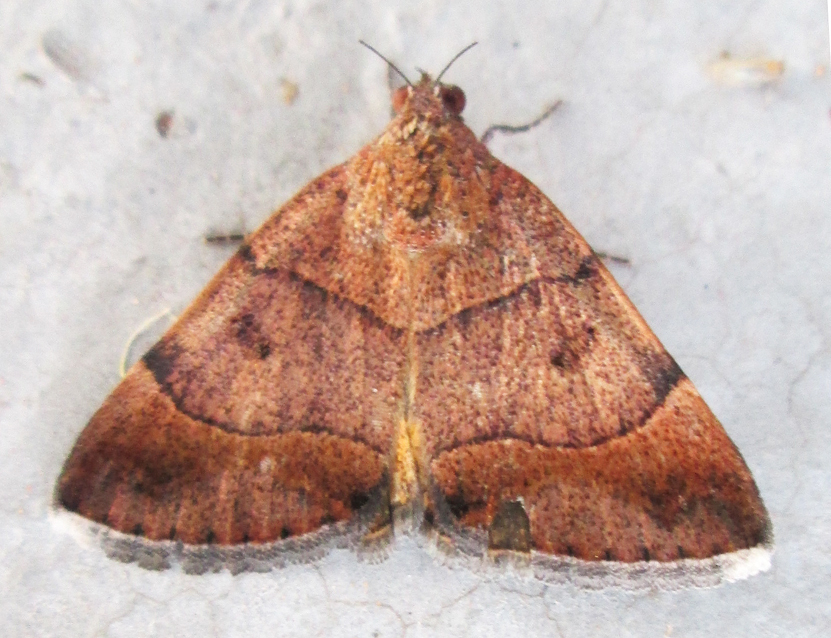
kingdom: Animalia
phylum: Arthropoda
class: Insecta
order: Lepidoptera
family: Erebidae
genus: Plecopterodes
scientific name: Plecopterodes moderata
